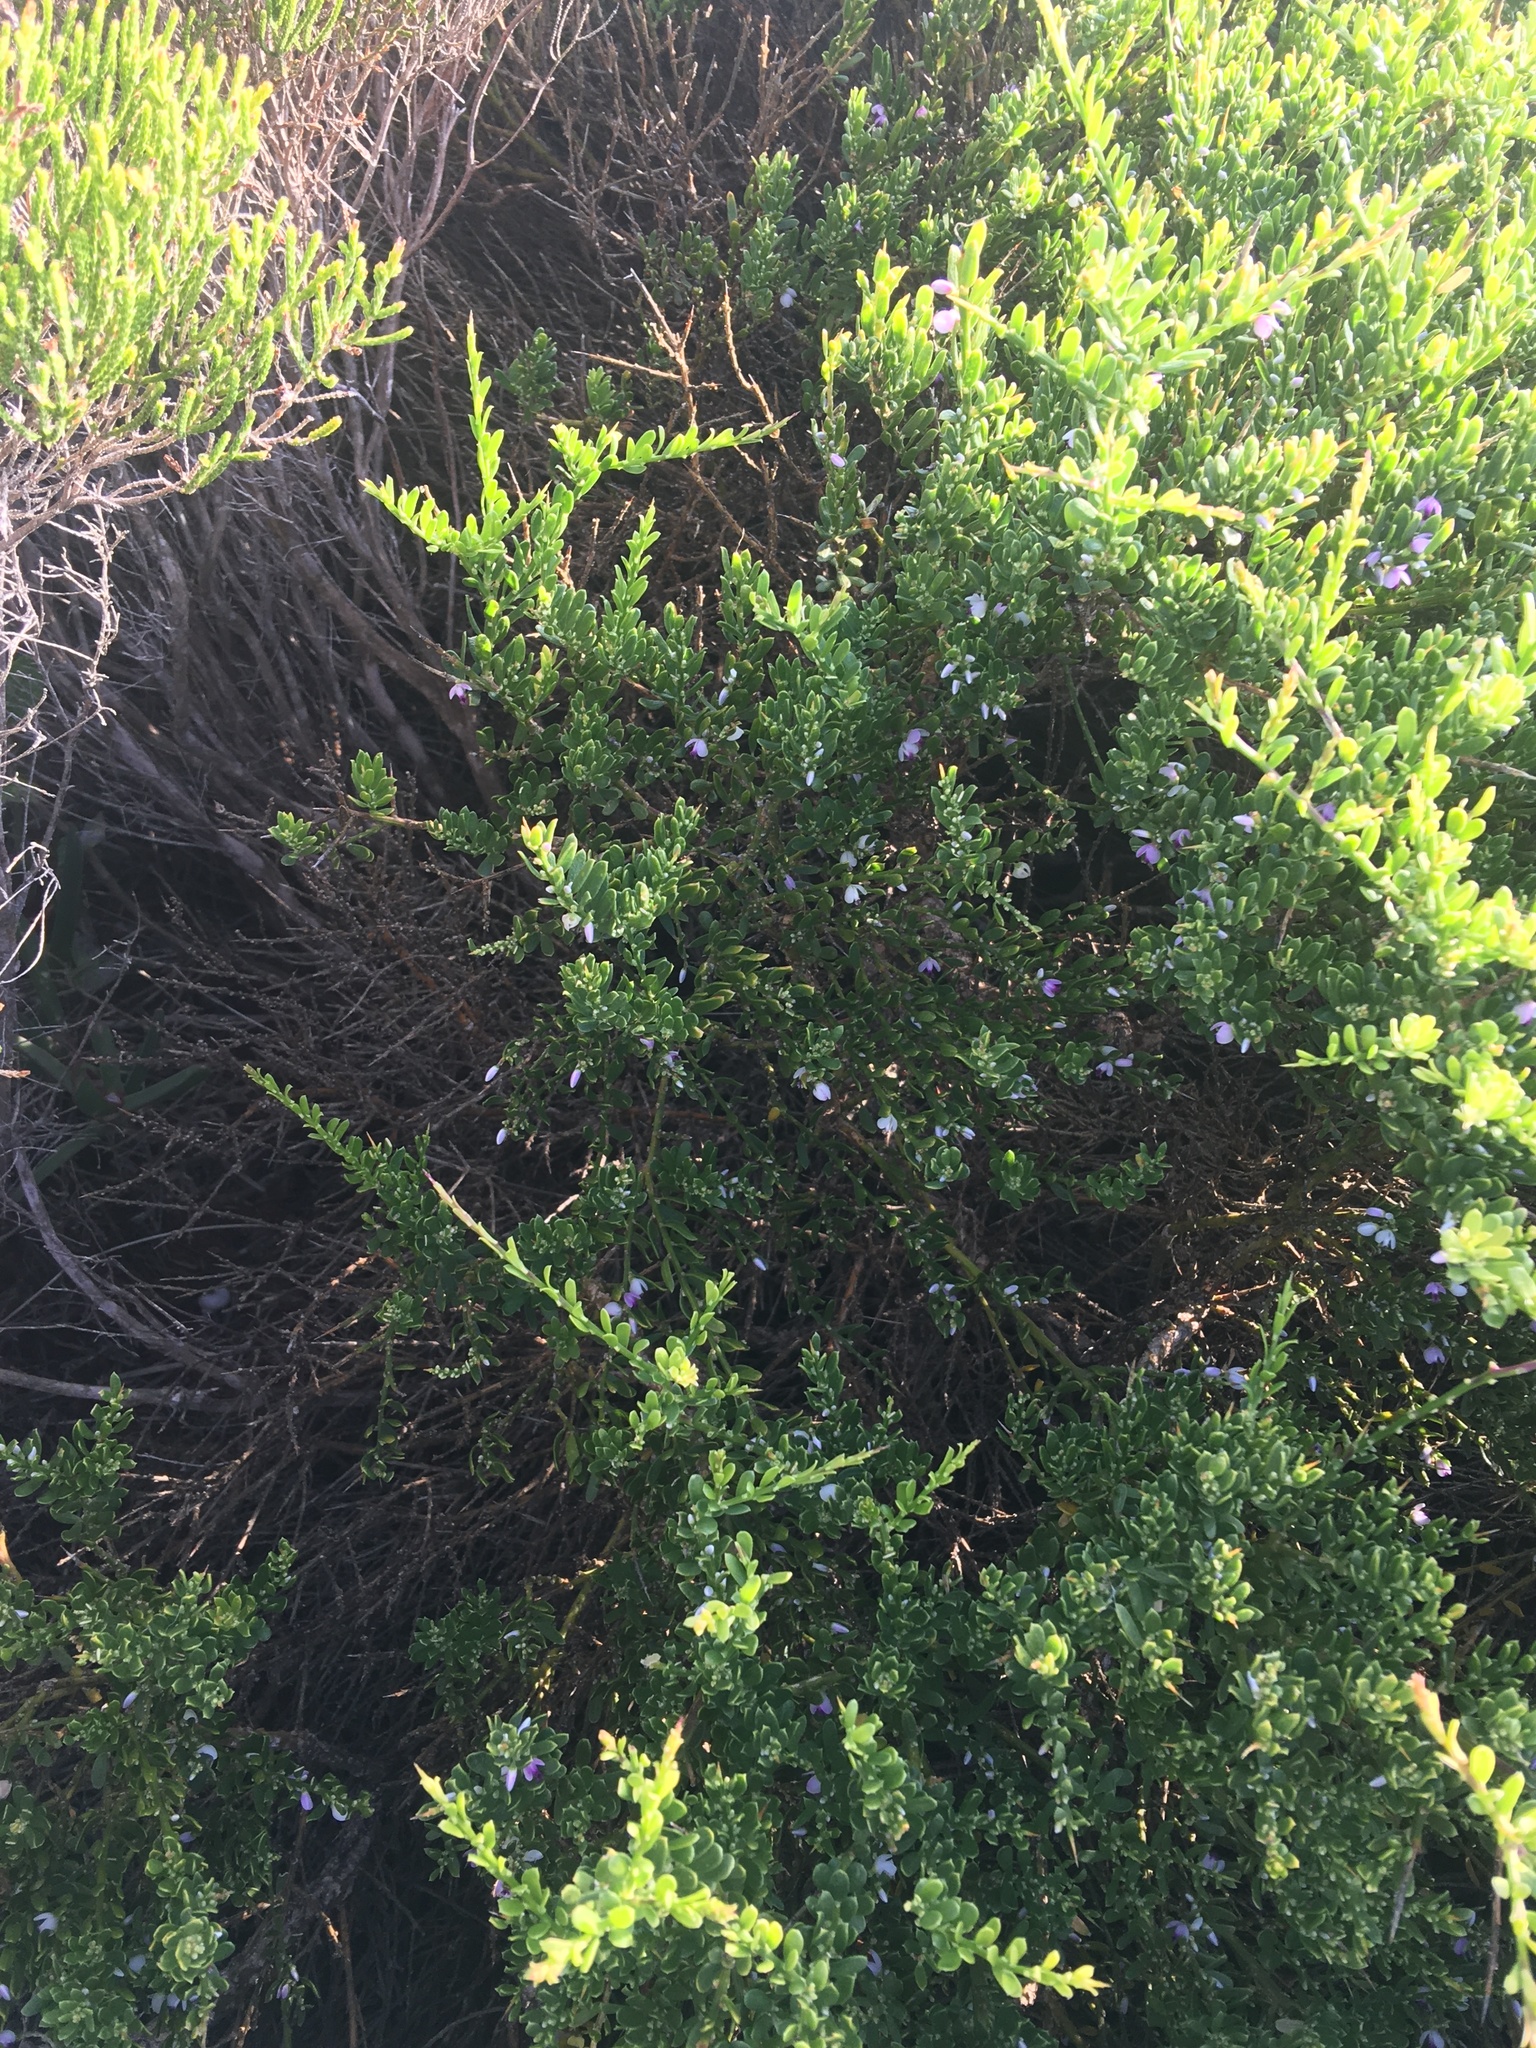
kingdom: Plantae
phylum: Tracheophyta
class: Magnoliopsida
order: Fabales
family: Polygalaceae
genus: Muraltia
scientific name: Muraltia spinosa
